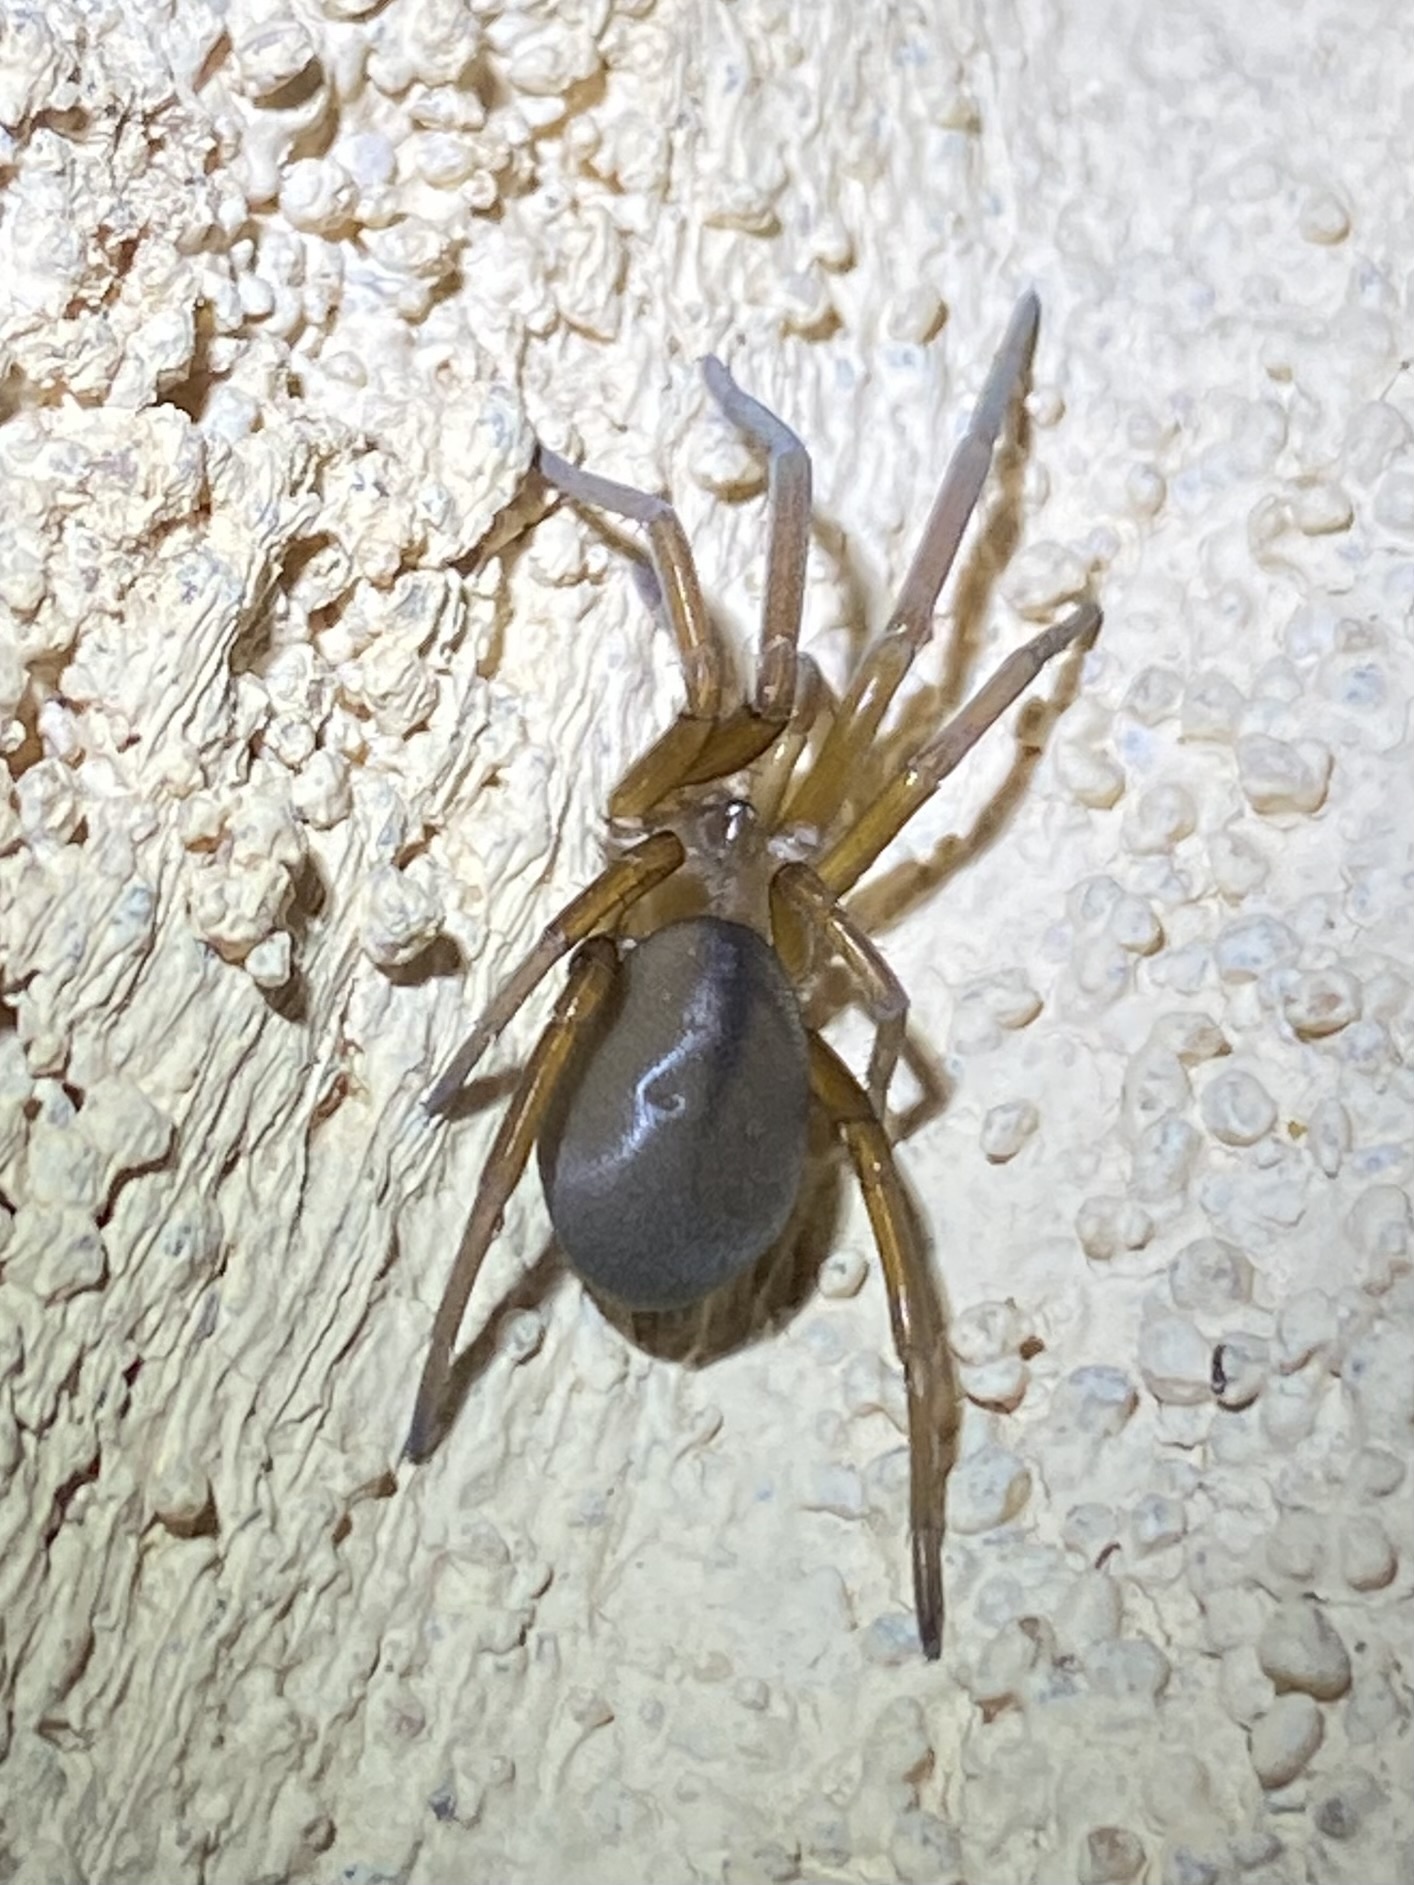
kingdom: Animalia
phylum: Arthropoda
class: Arachnida
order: Araneae
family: Filistatidae
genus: Kukulcania
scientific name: Kukulcania
